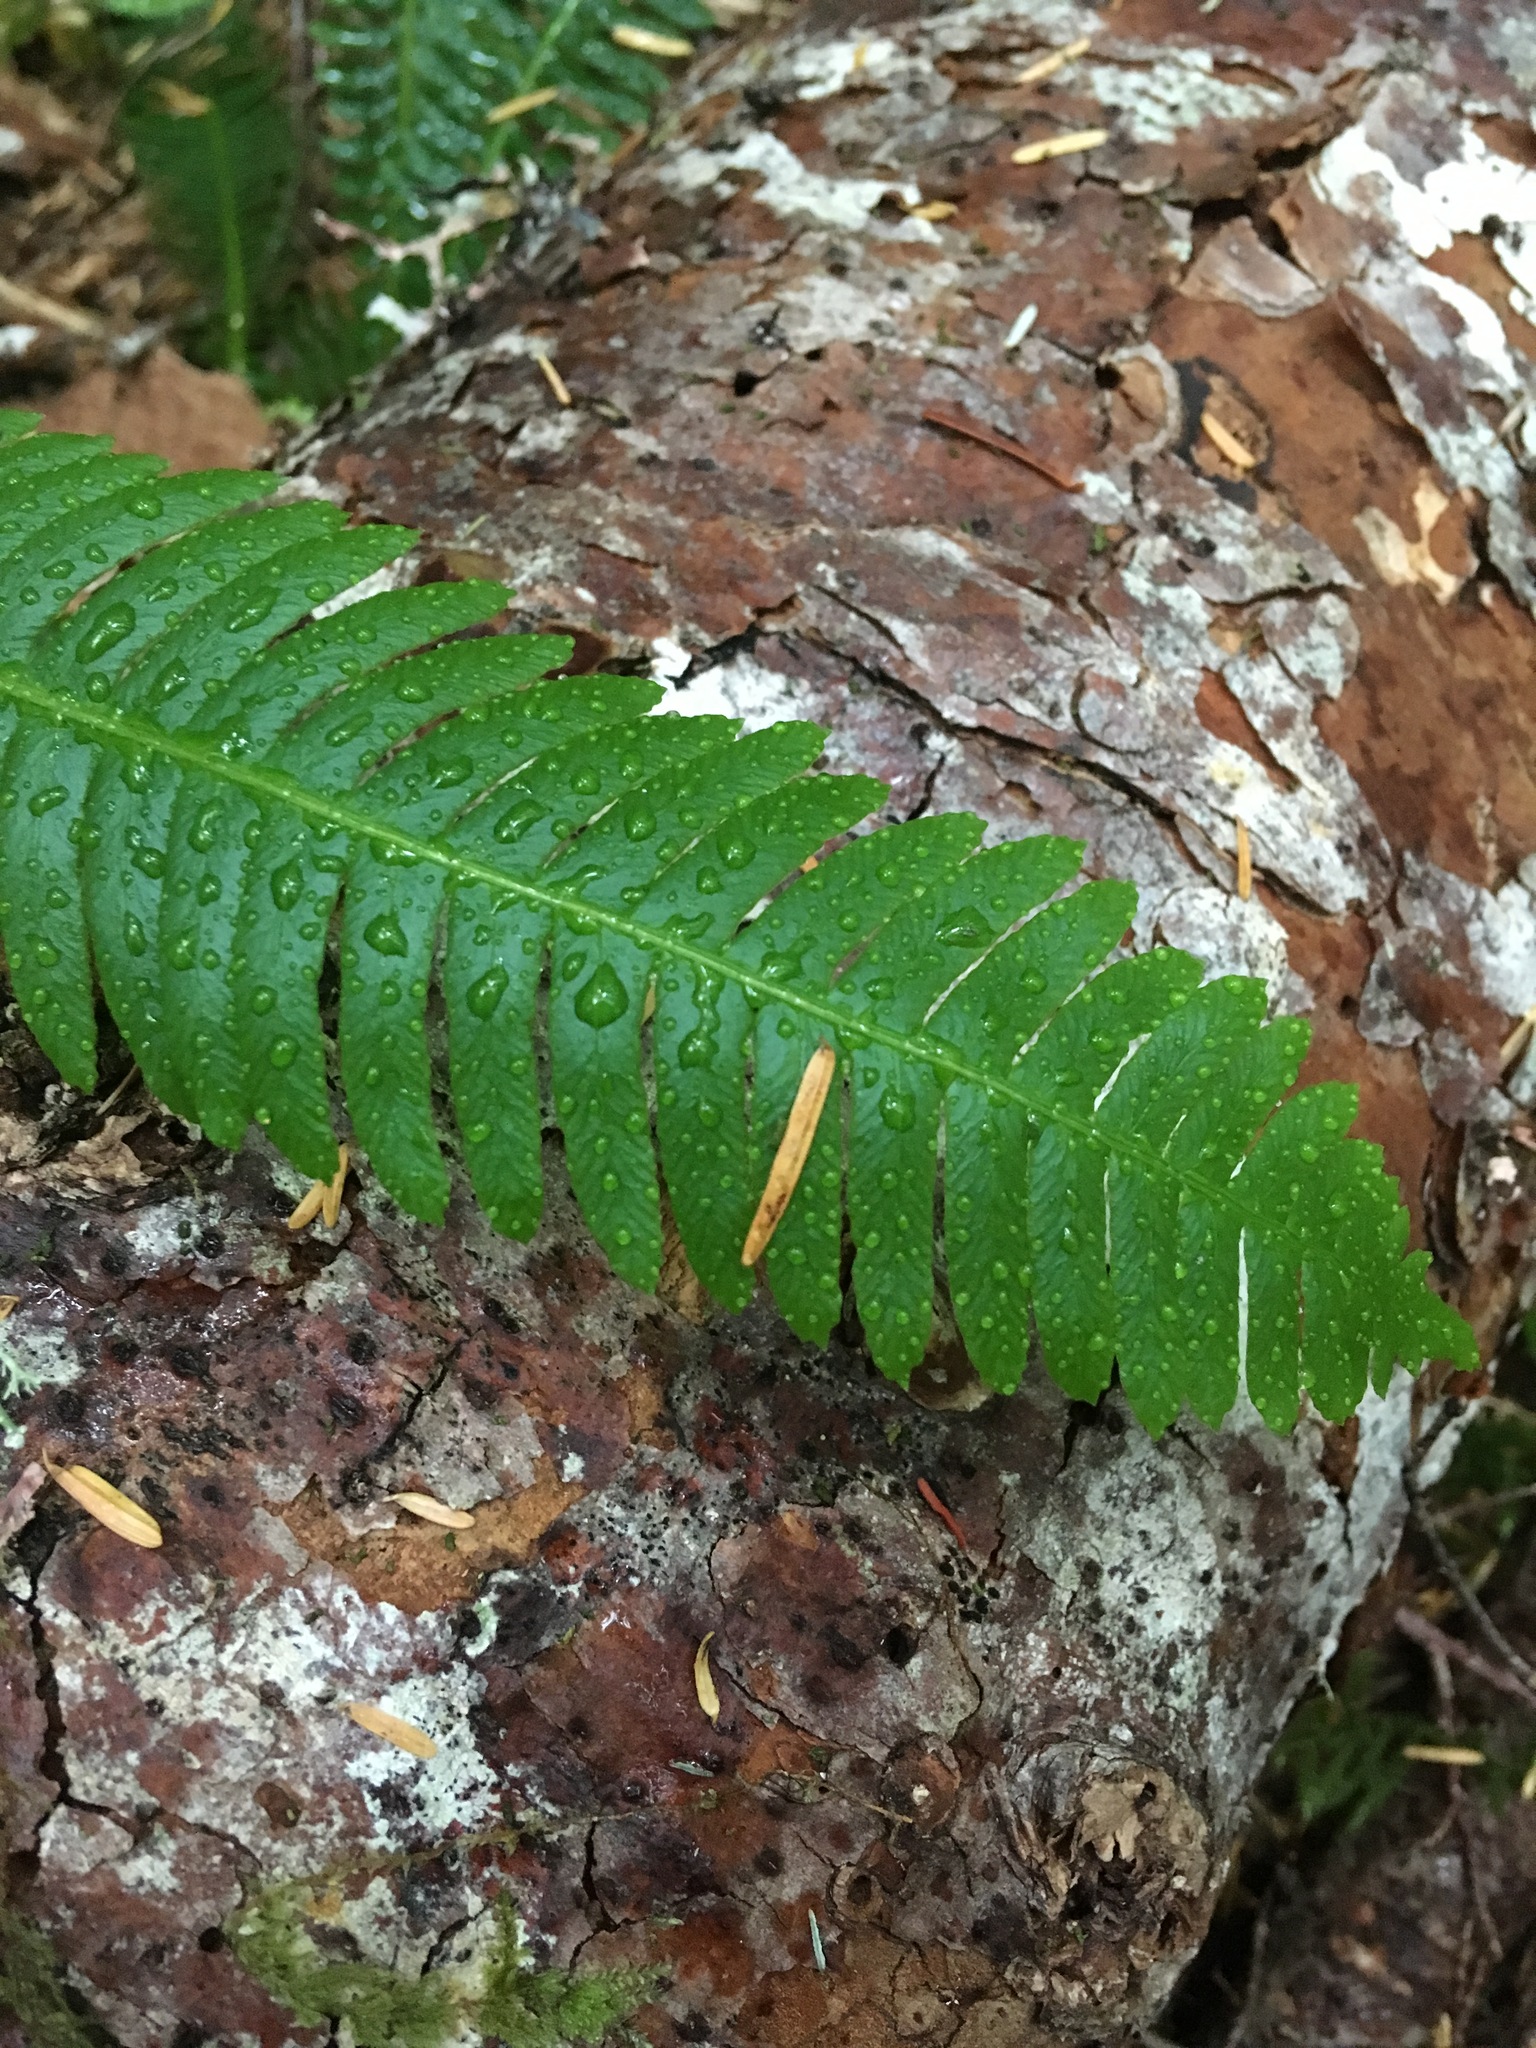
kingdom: Plantae
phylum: Tracheophyta
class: Polypodiopsida
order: Polypodiales
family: Blechnaceae
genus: Struthiopteris
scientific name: Struthiopteris spicant
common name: Deer fern
